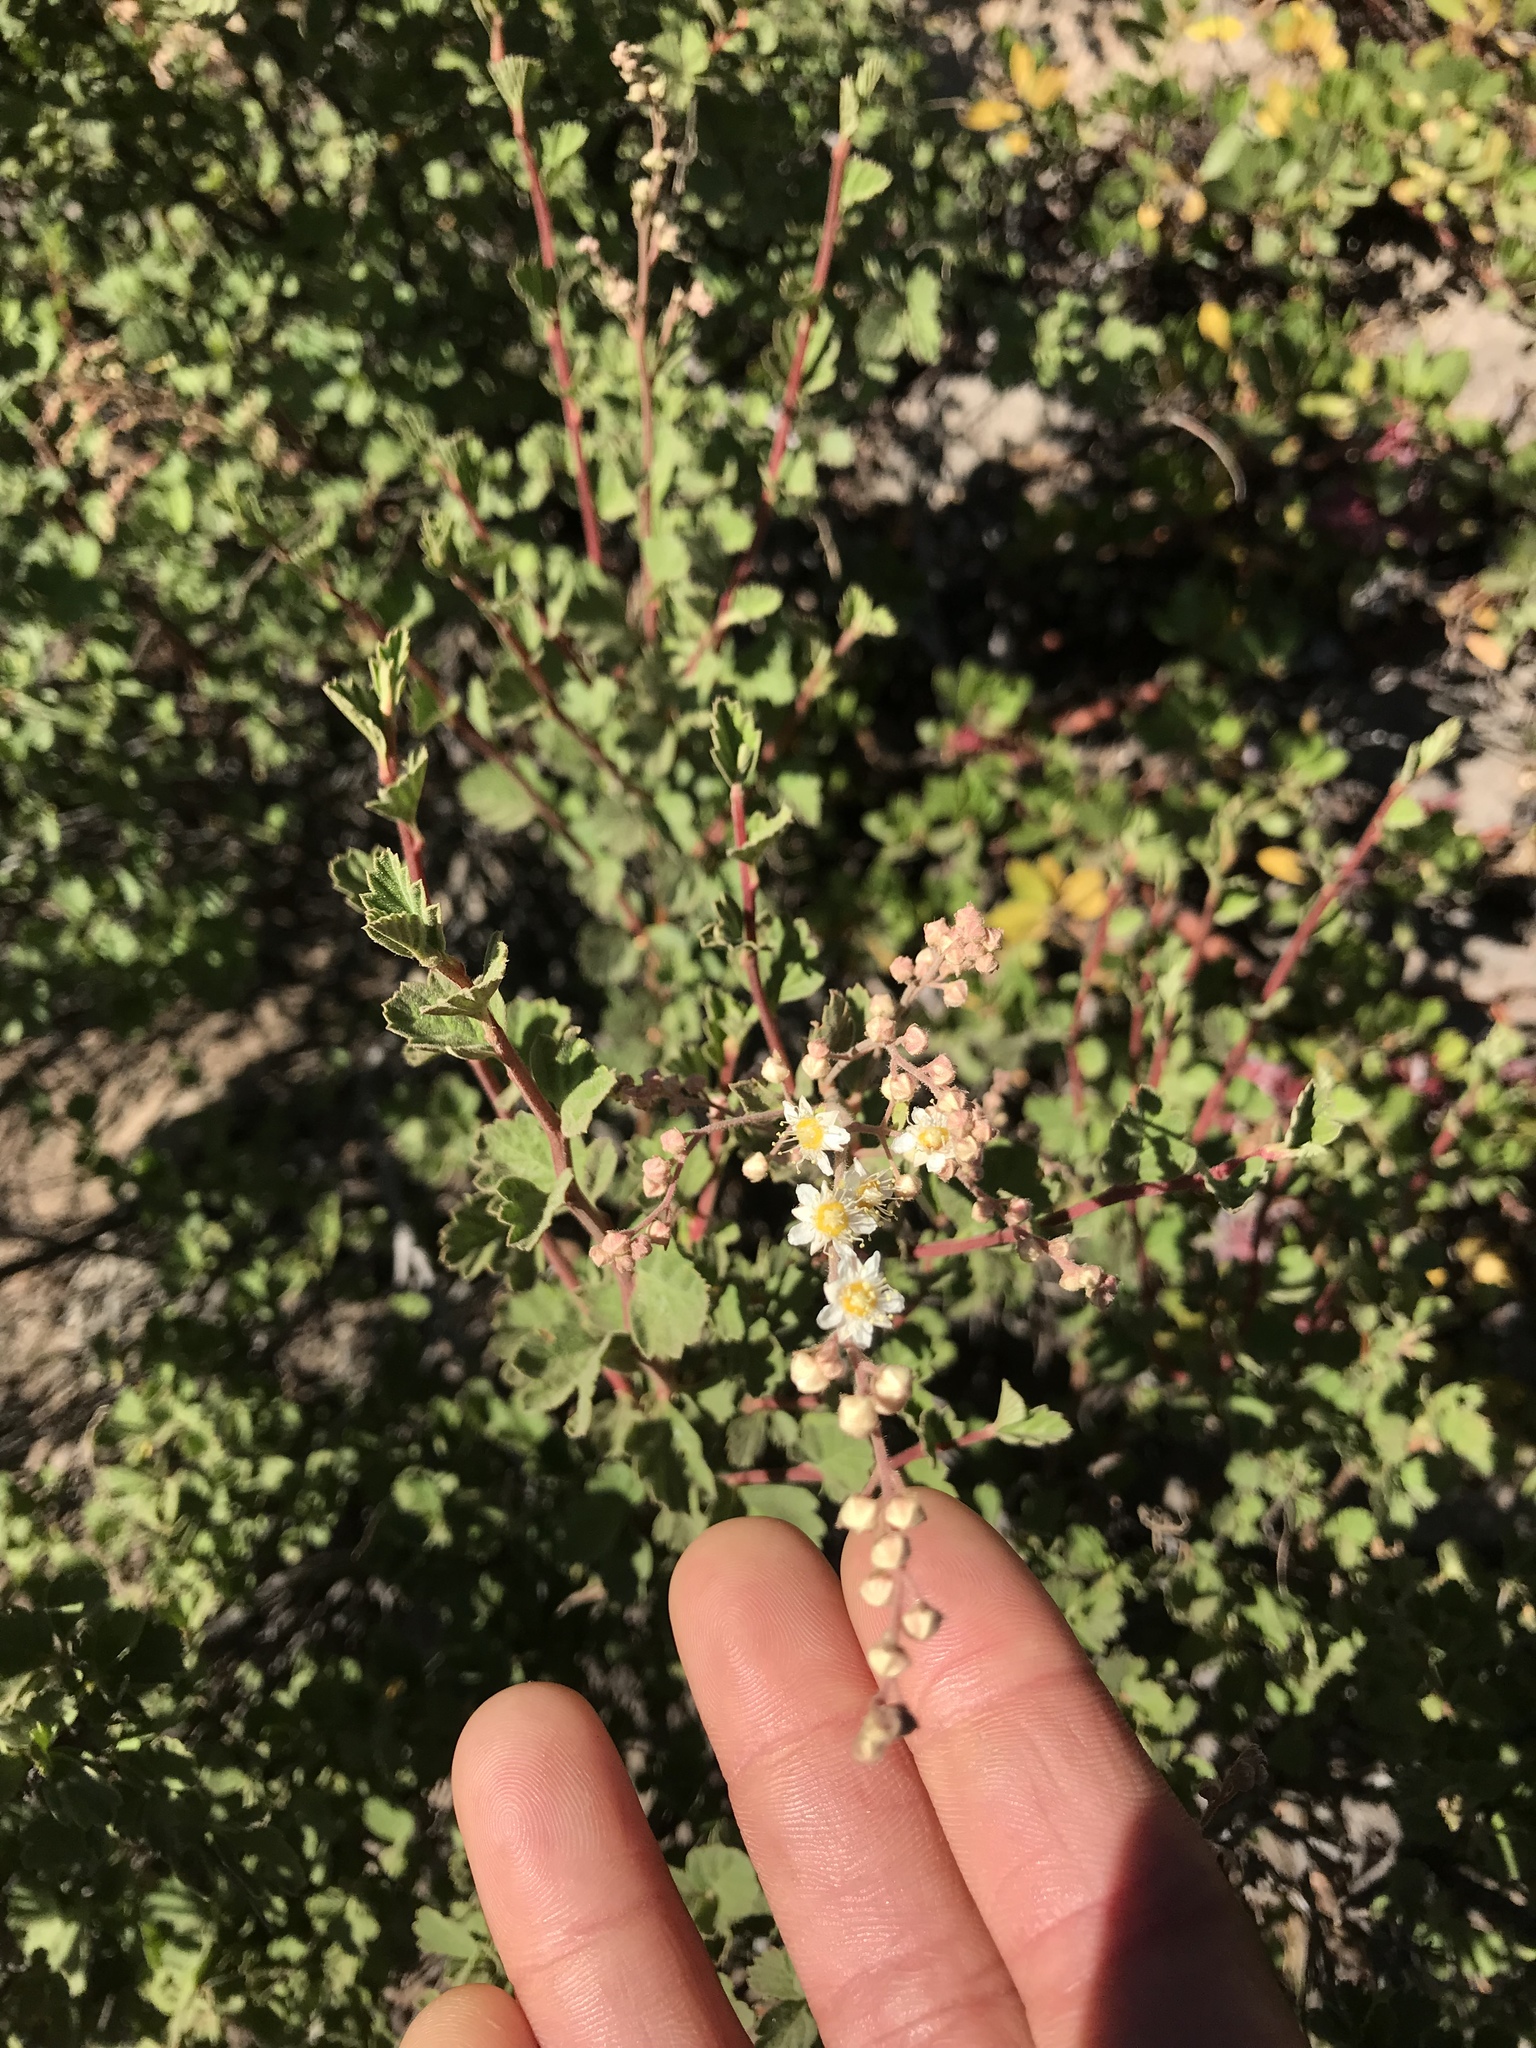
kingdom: Plantae
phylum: Tracheophyta
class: Magnoliopsida
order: Rosales
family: Rosaceae
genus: Holodiscus
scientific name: Holodiscus discolor
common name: Oceanspray
